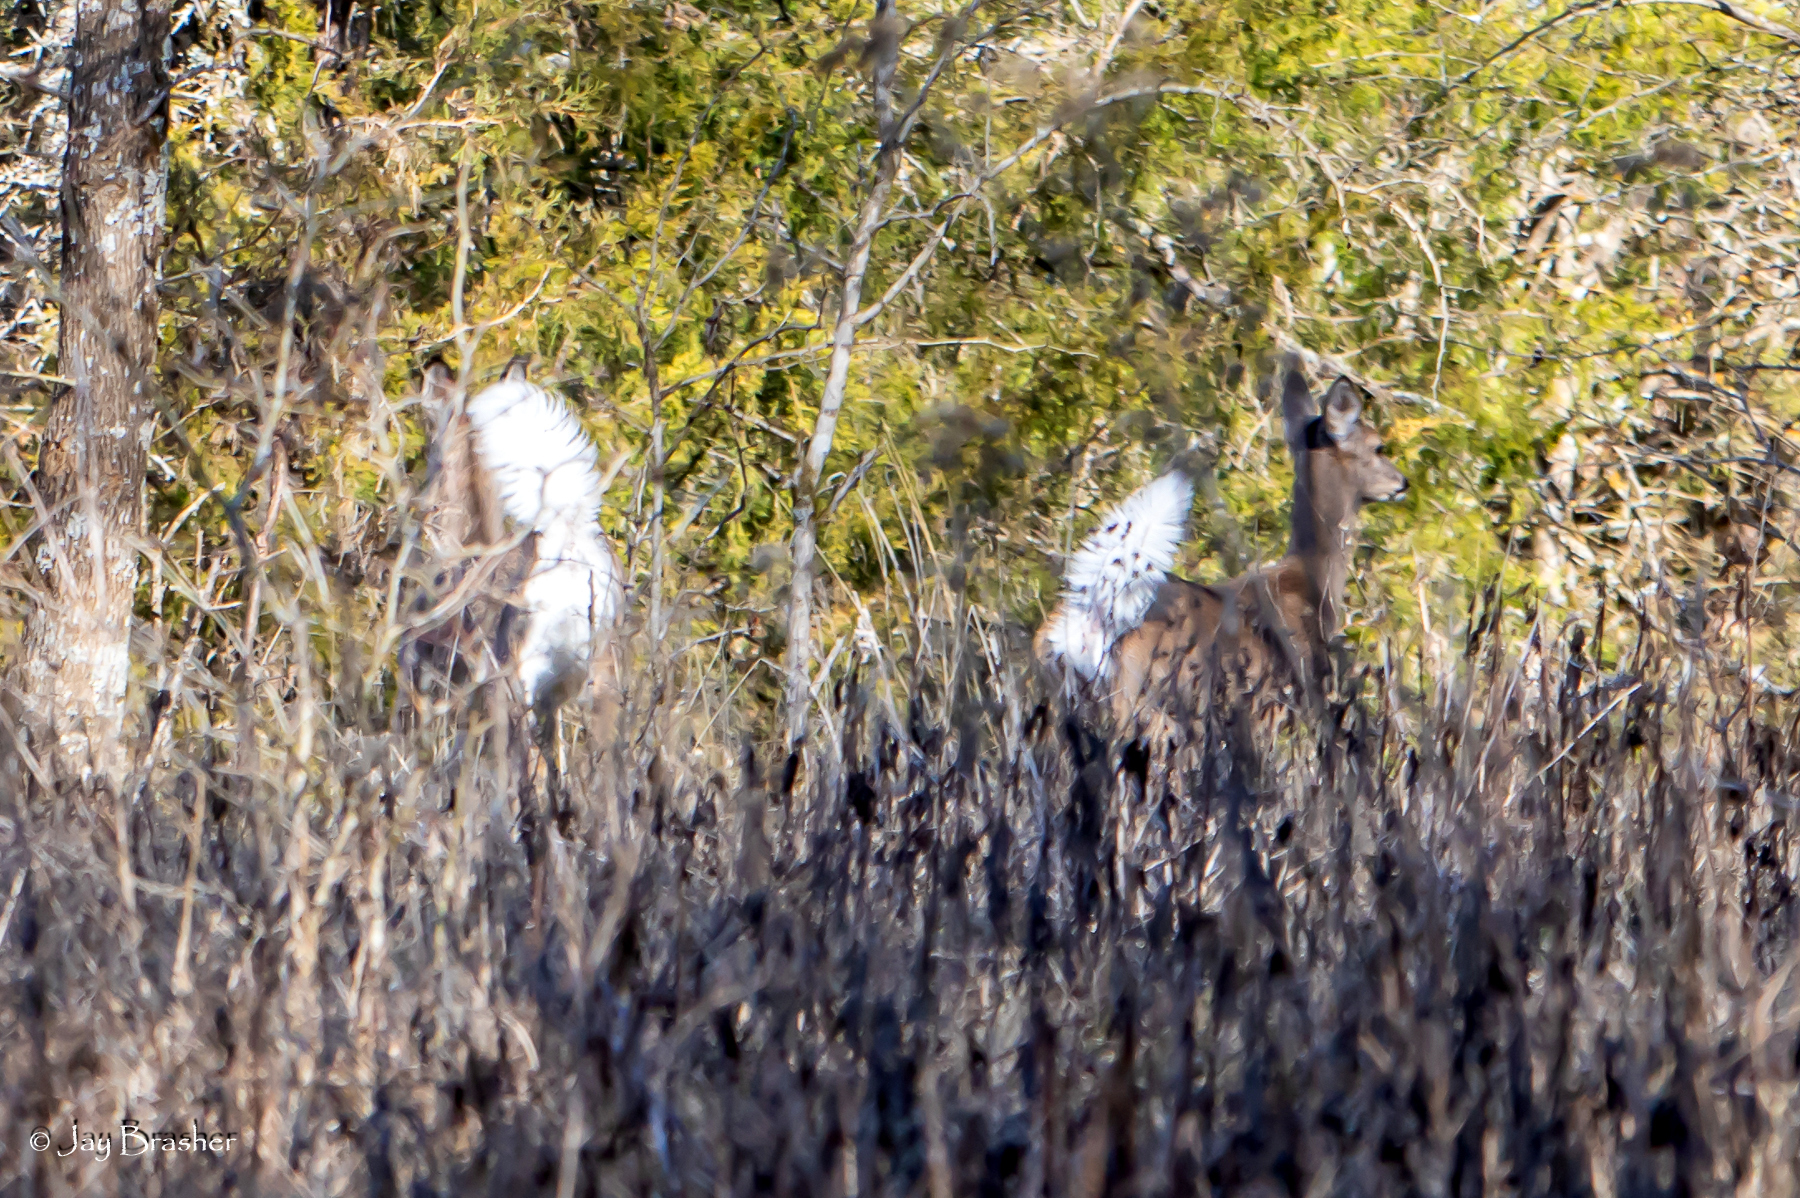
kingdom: Animalia
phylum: Chordata
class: Mammalia
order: Artiodactyla
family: Cervidae
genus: Odocoileus
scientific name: Odocoileus virginianus
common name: White-tailed deer
